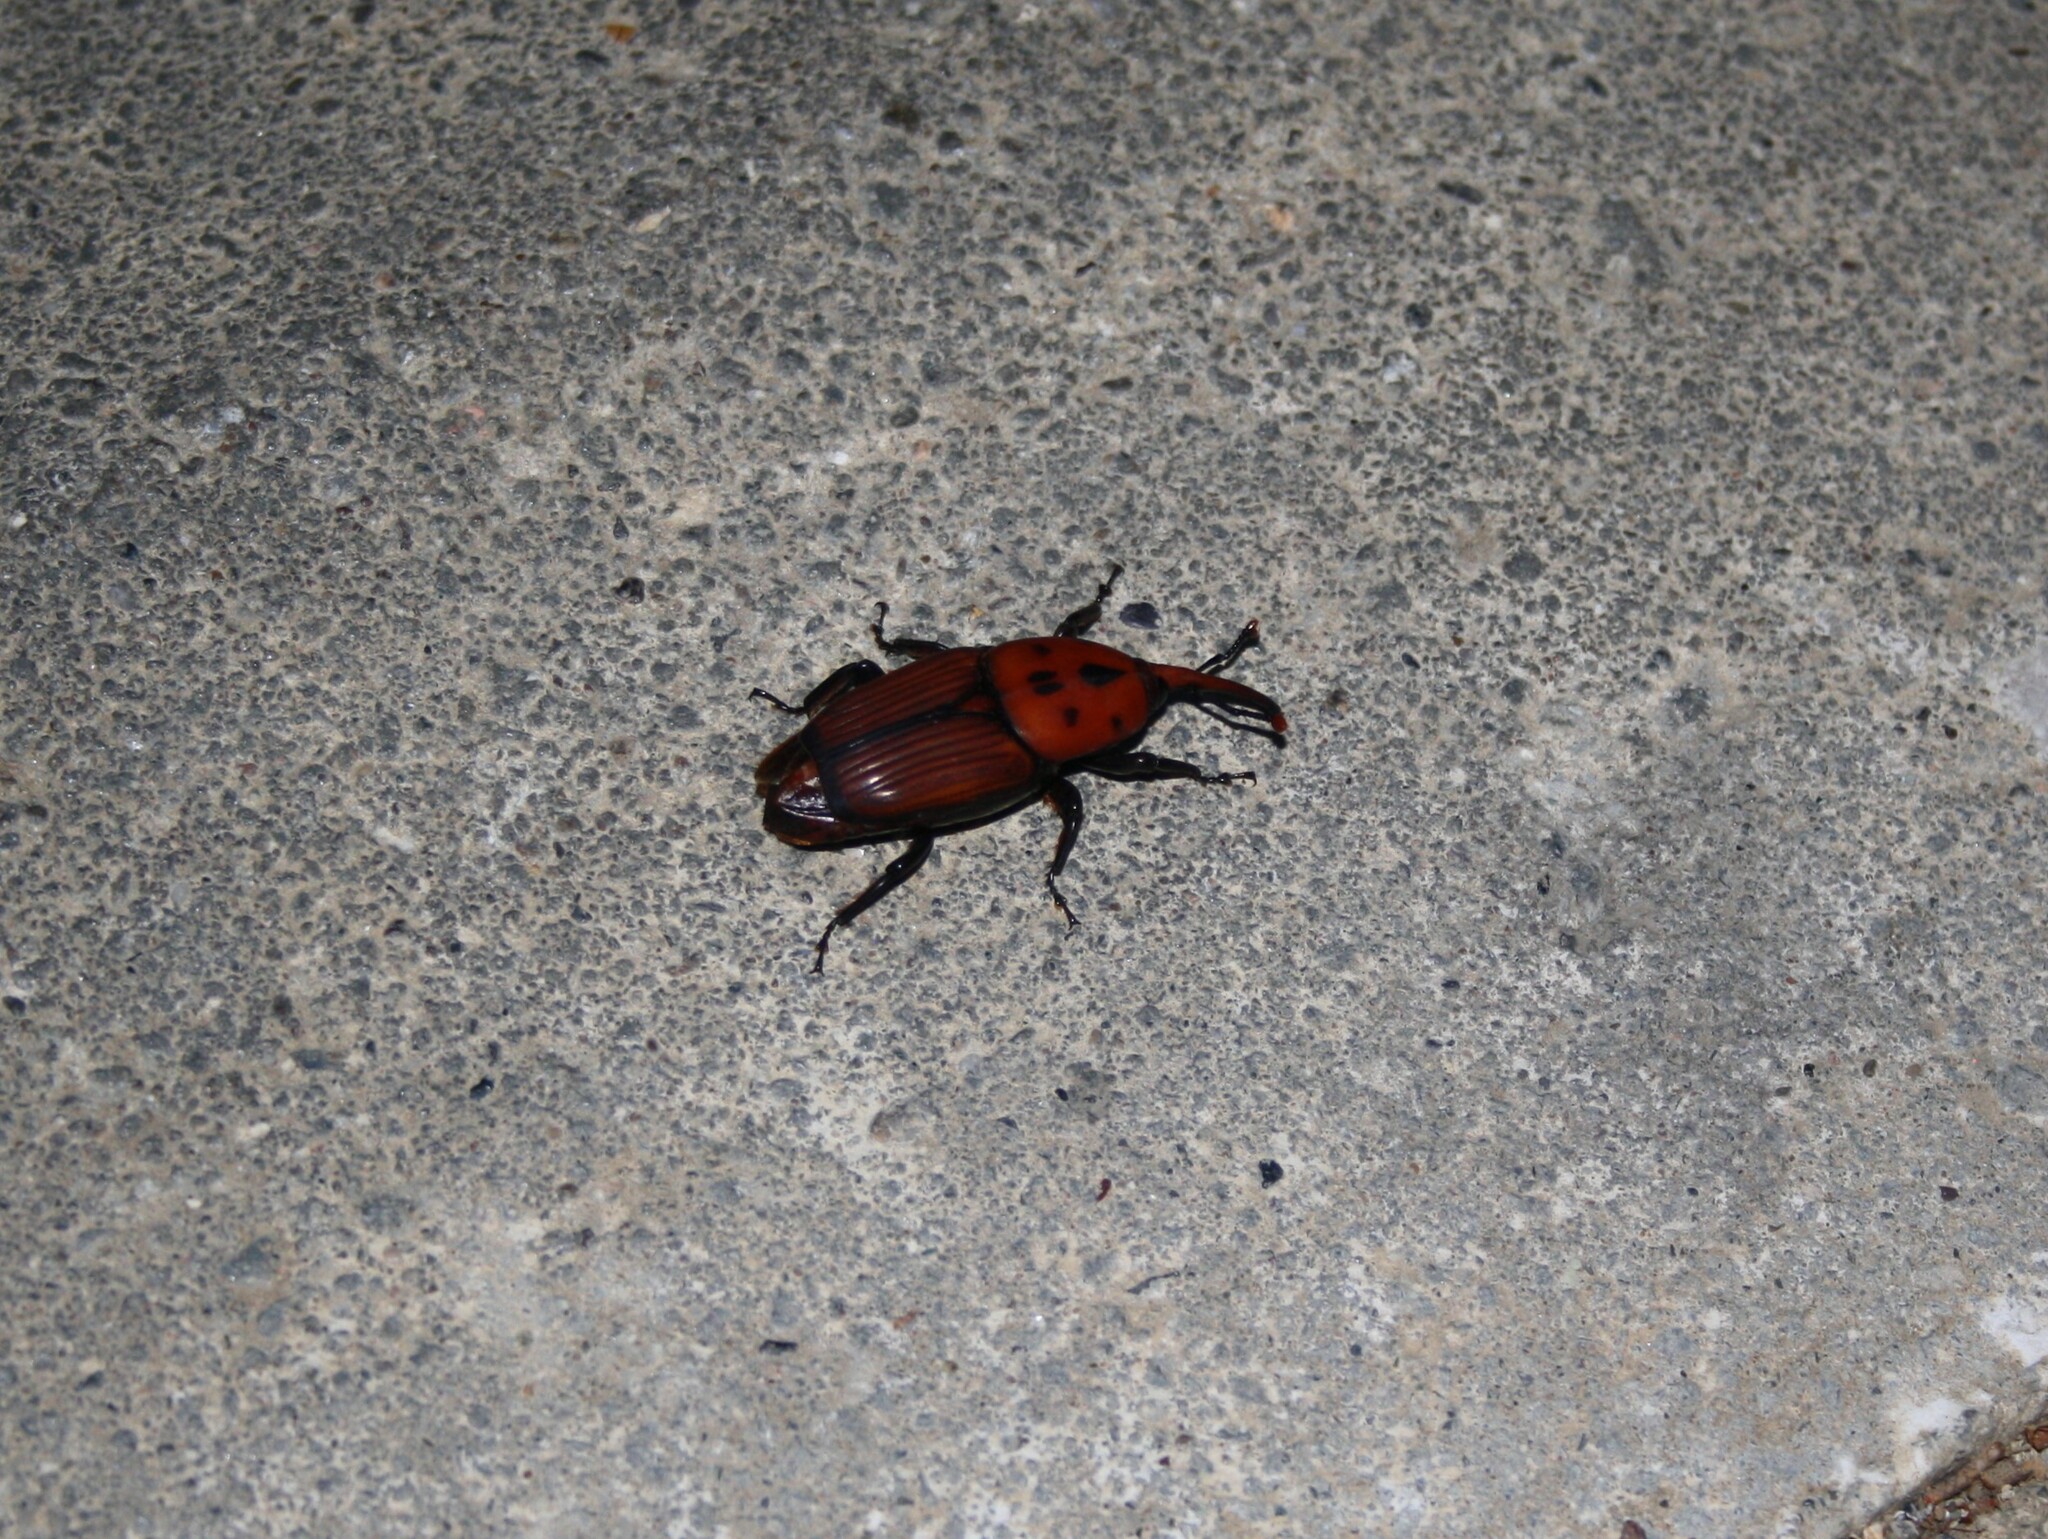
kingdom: Animalia
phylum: Arthropoda
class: Insecta
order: Coleoptera
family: Dryophthoridae
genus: Rhynchophorus
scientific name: Rhynchophorus ferrugineus
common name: Red palm weevil
